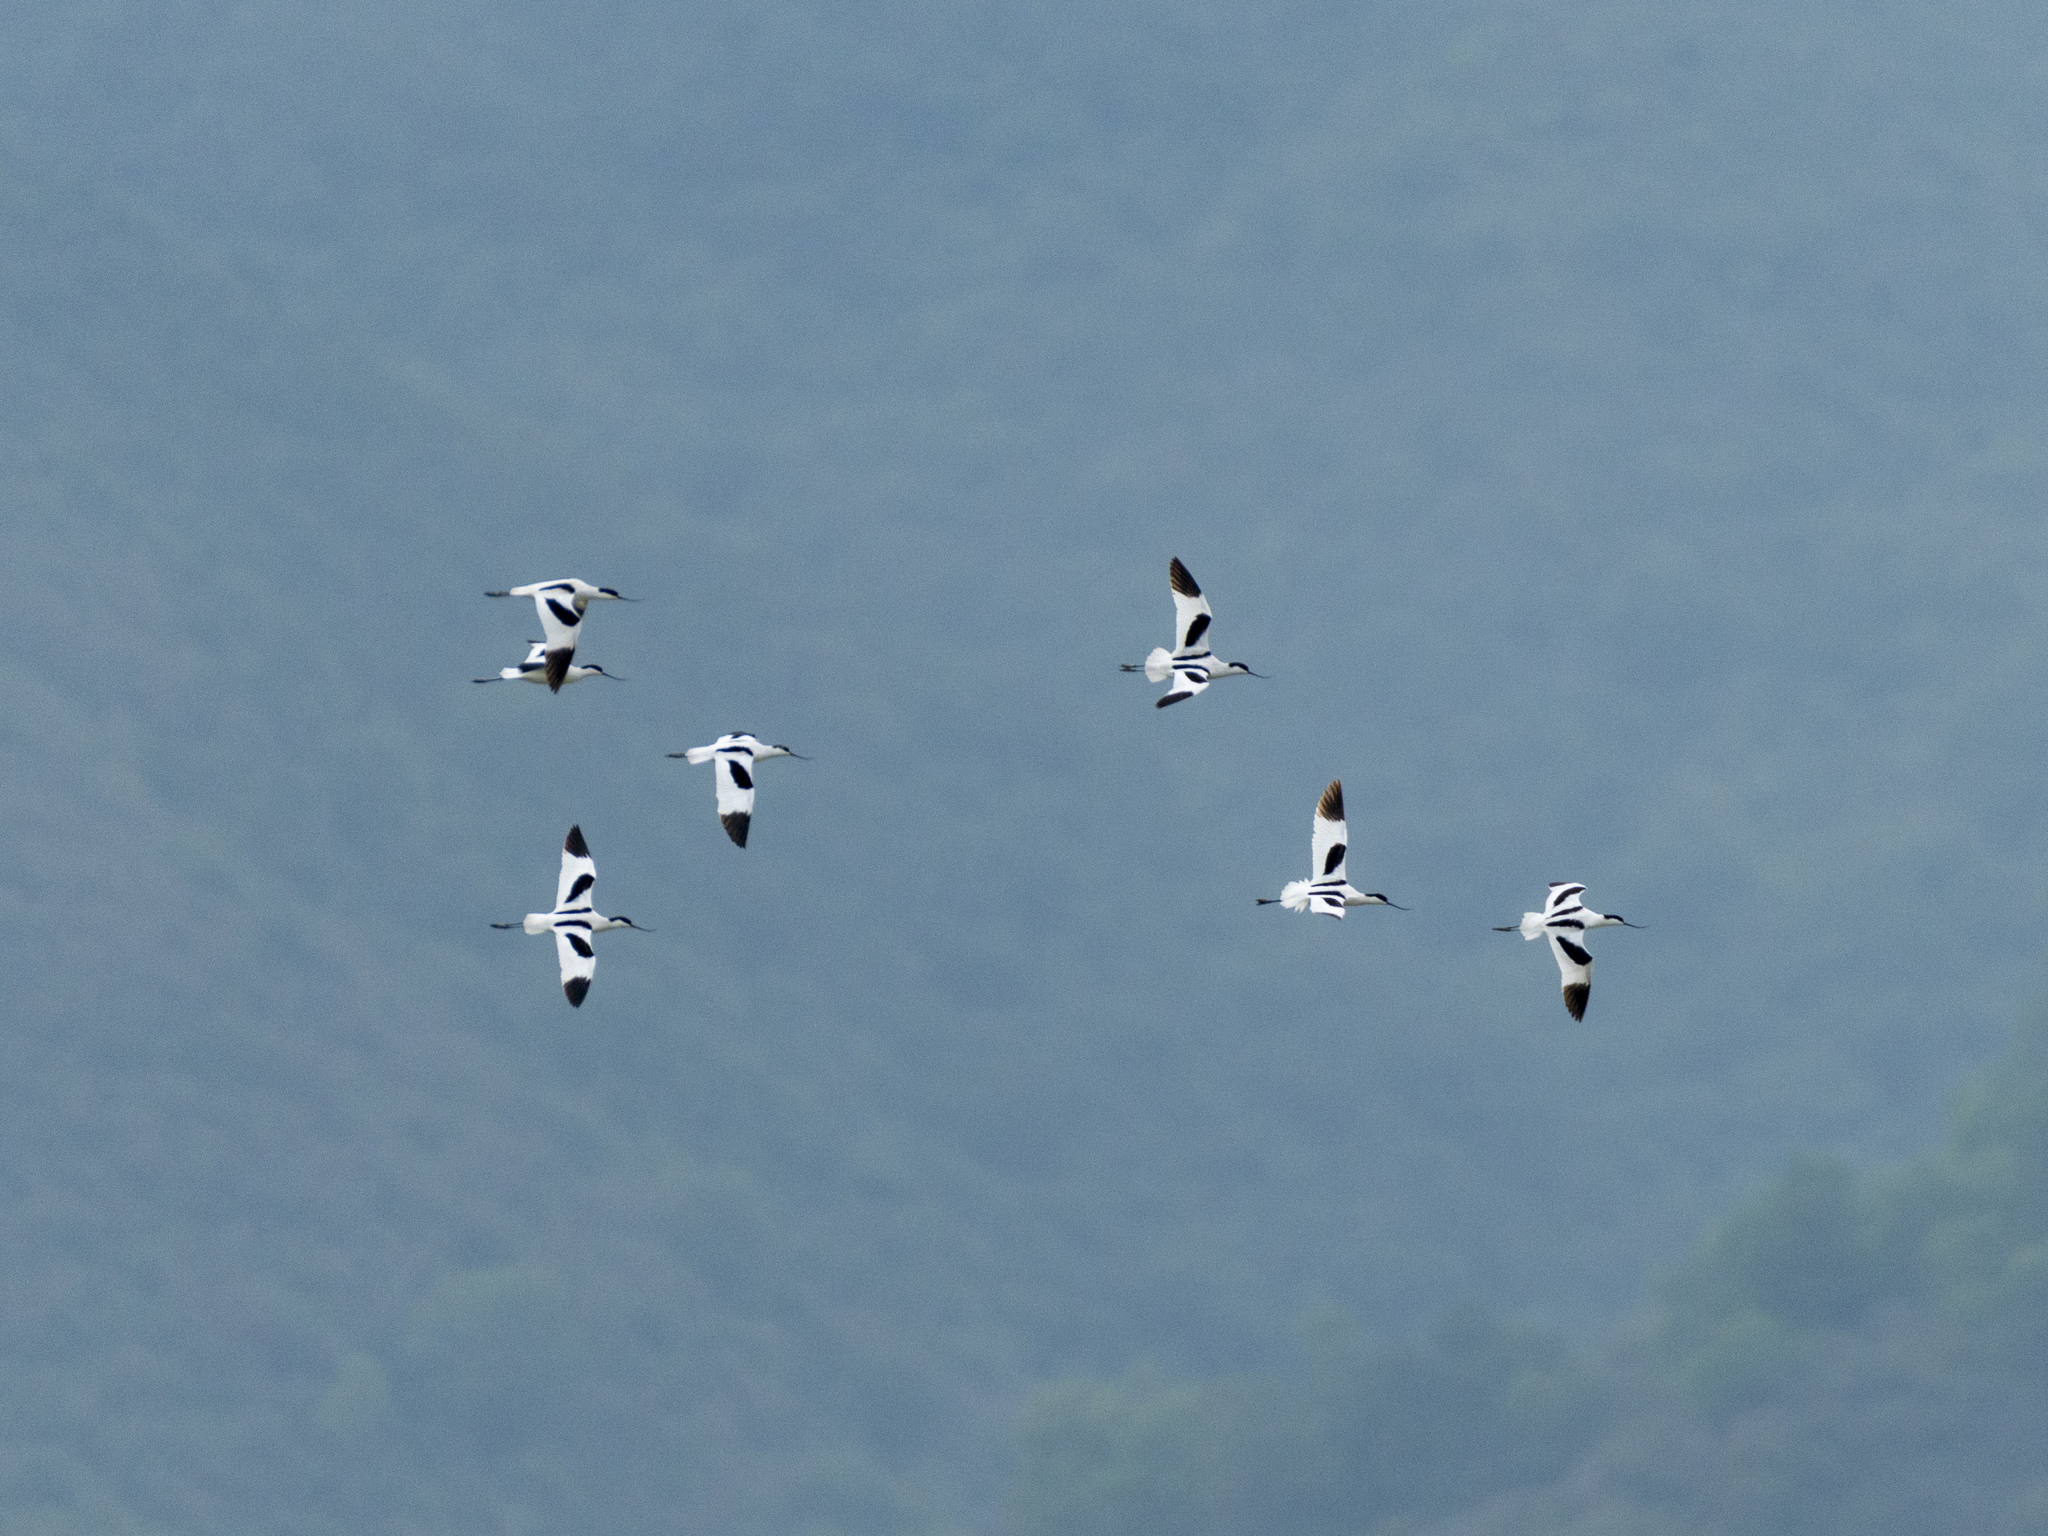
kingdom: Animalia
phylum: Chordata
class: Aves
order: Charadriiformes
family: Recurvirostridae
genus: Recurvirostra
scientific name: Recurvirostra avosetta
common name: Pied avocet
